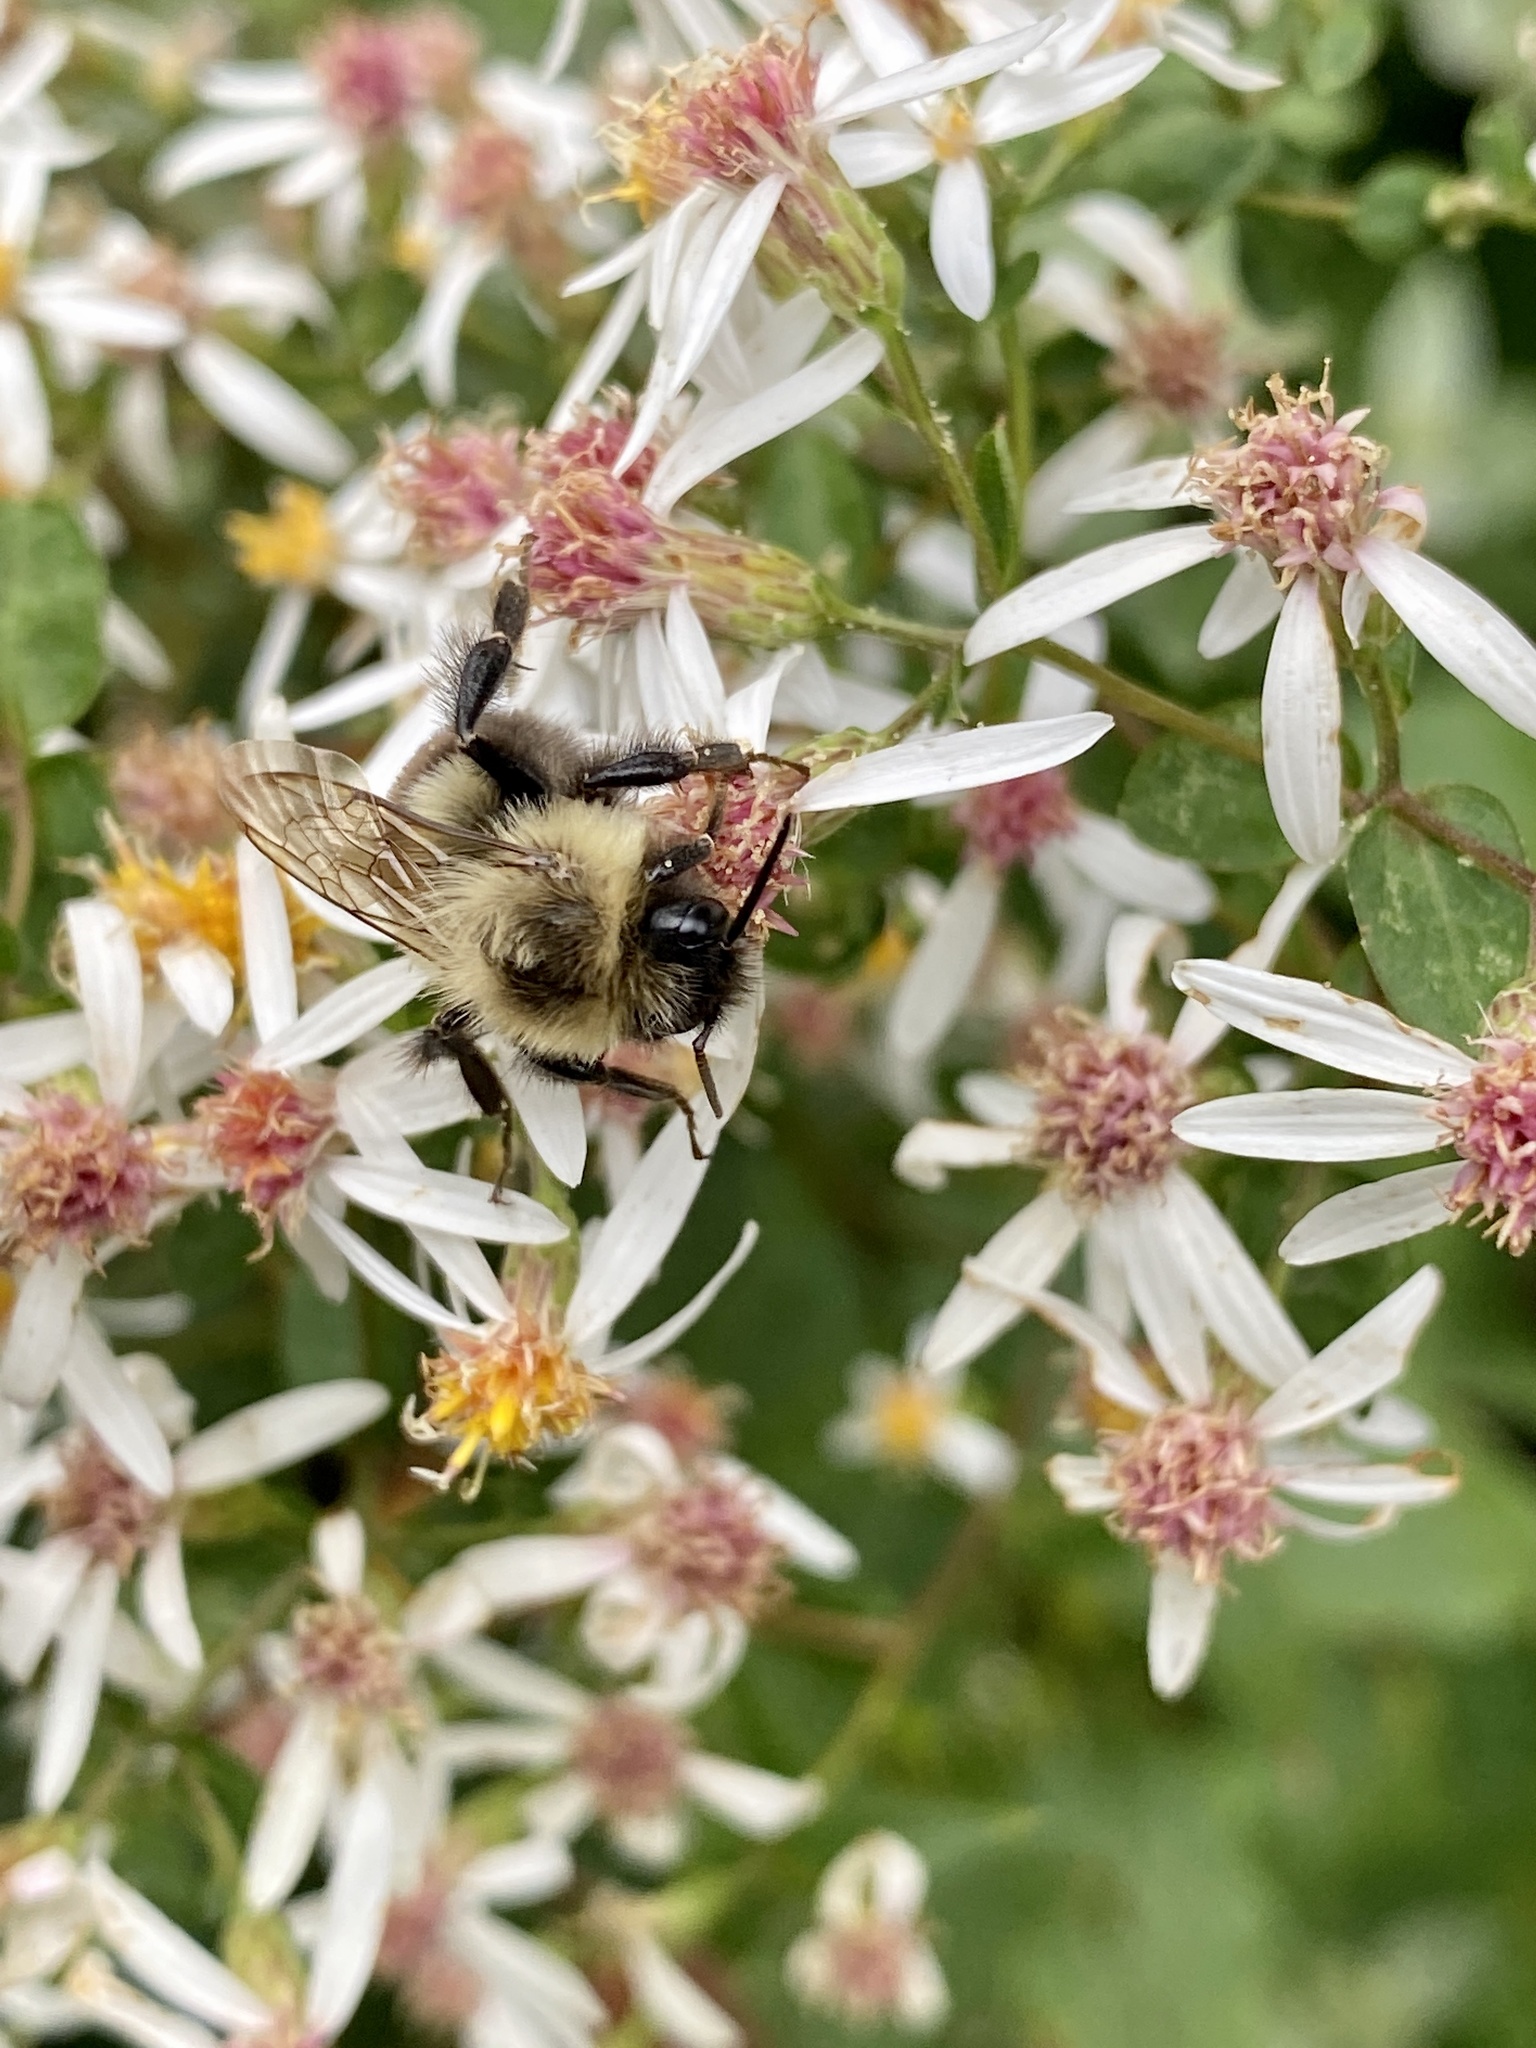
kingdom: Animalia
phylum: Arthropoda
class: Insecta
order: Hymenoptera
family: Apidae
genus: Bombus
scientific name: Bombus impatiens
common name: Common eastern bumble bee
